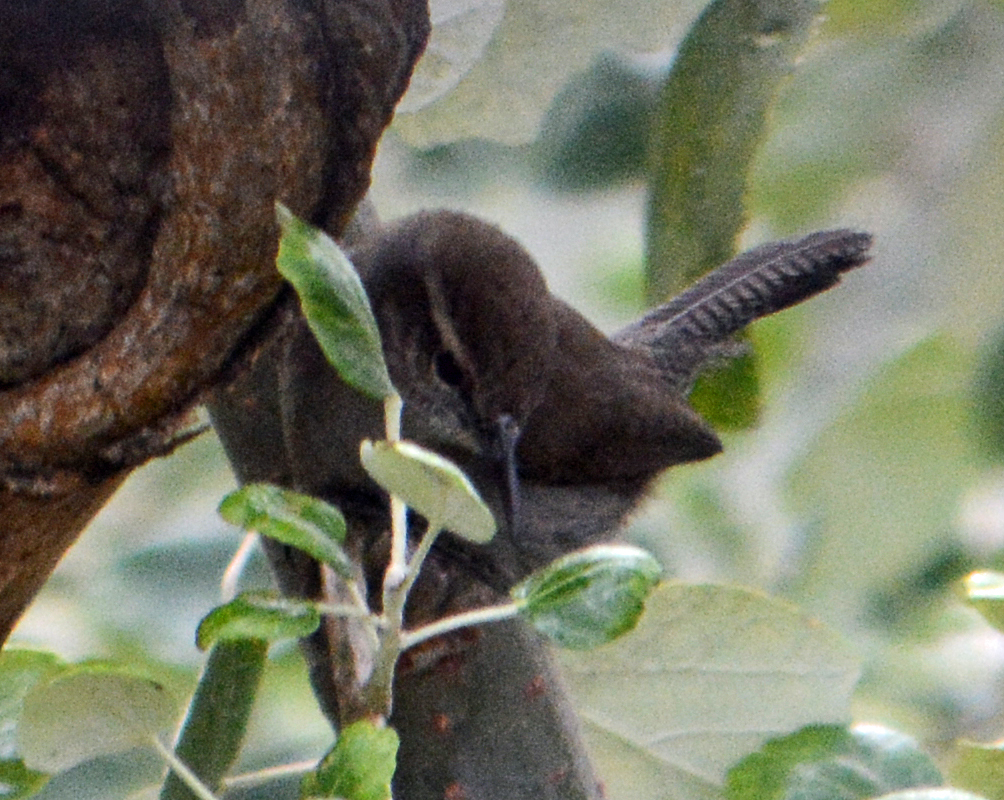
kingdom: Animalia
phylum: Chordata
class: Aves
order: Passeriformes
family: Troglodytidae
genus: Thryomanes
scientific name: Thryomanes bewickii
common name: Bewick's wren
